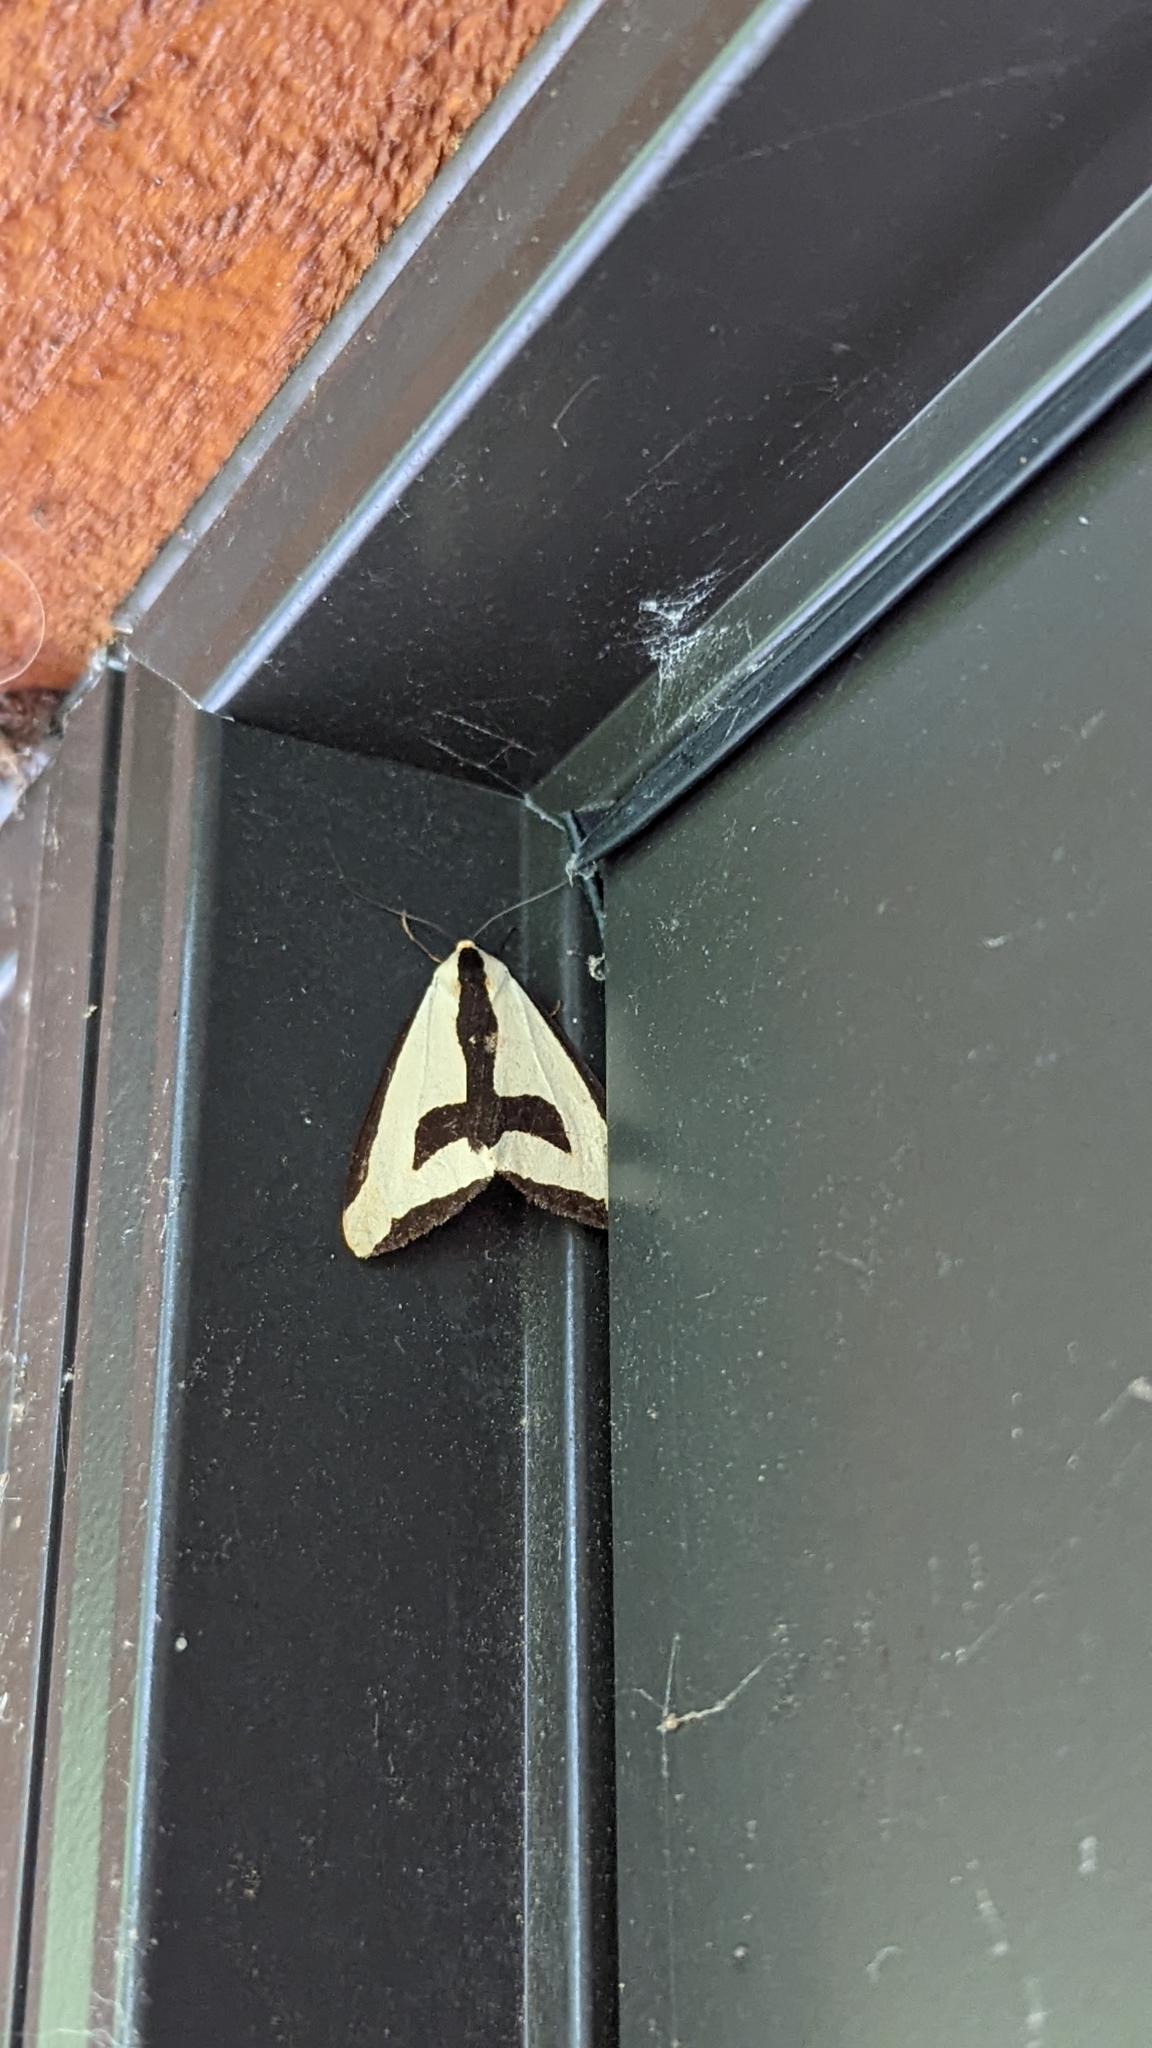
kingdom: Animalia
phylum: Arthropoda
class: Insecta
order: Lepidoptera
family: Erebidae
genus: Haploa
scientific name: Haploa clymene
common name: Clymene moth
